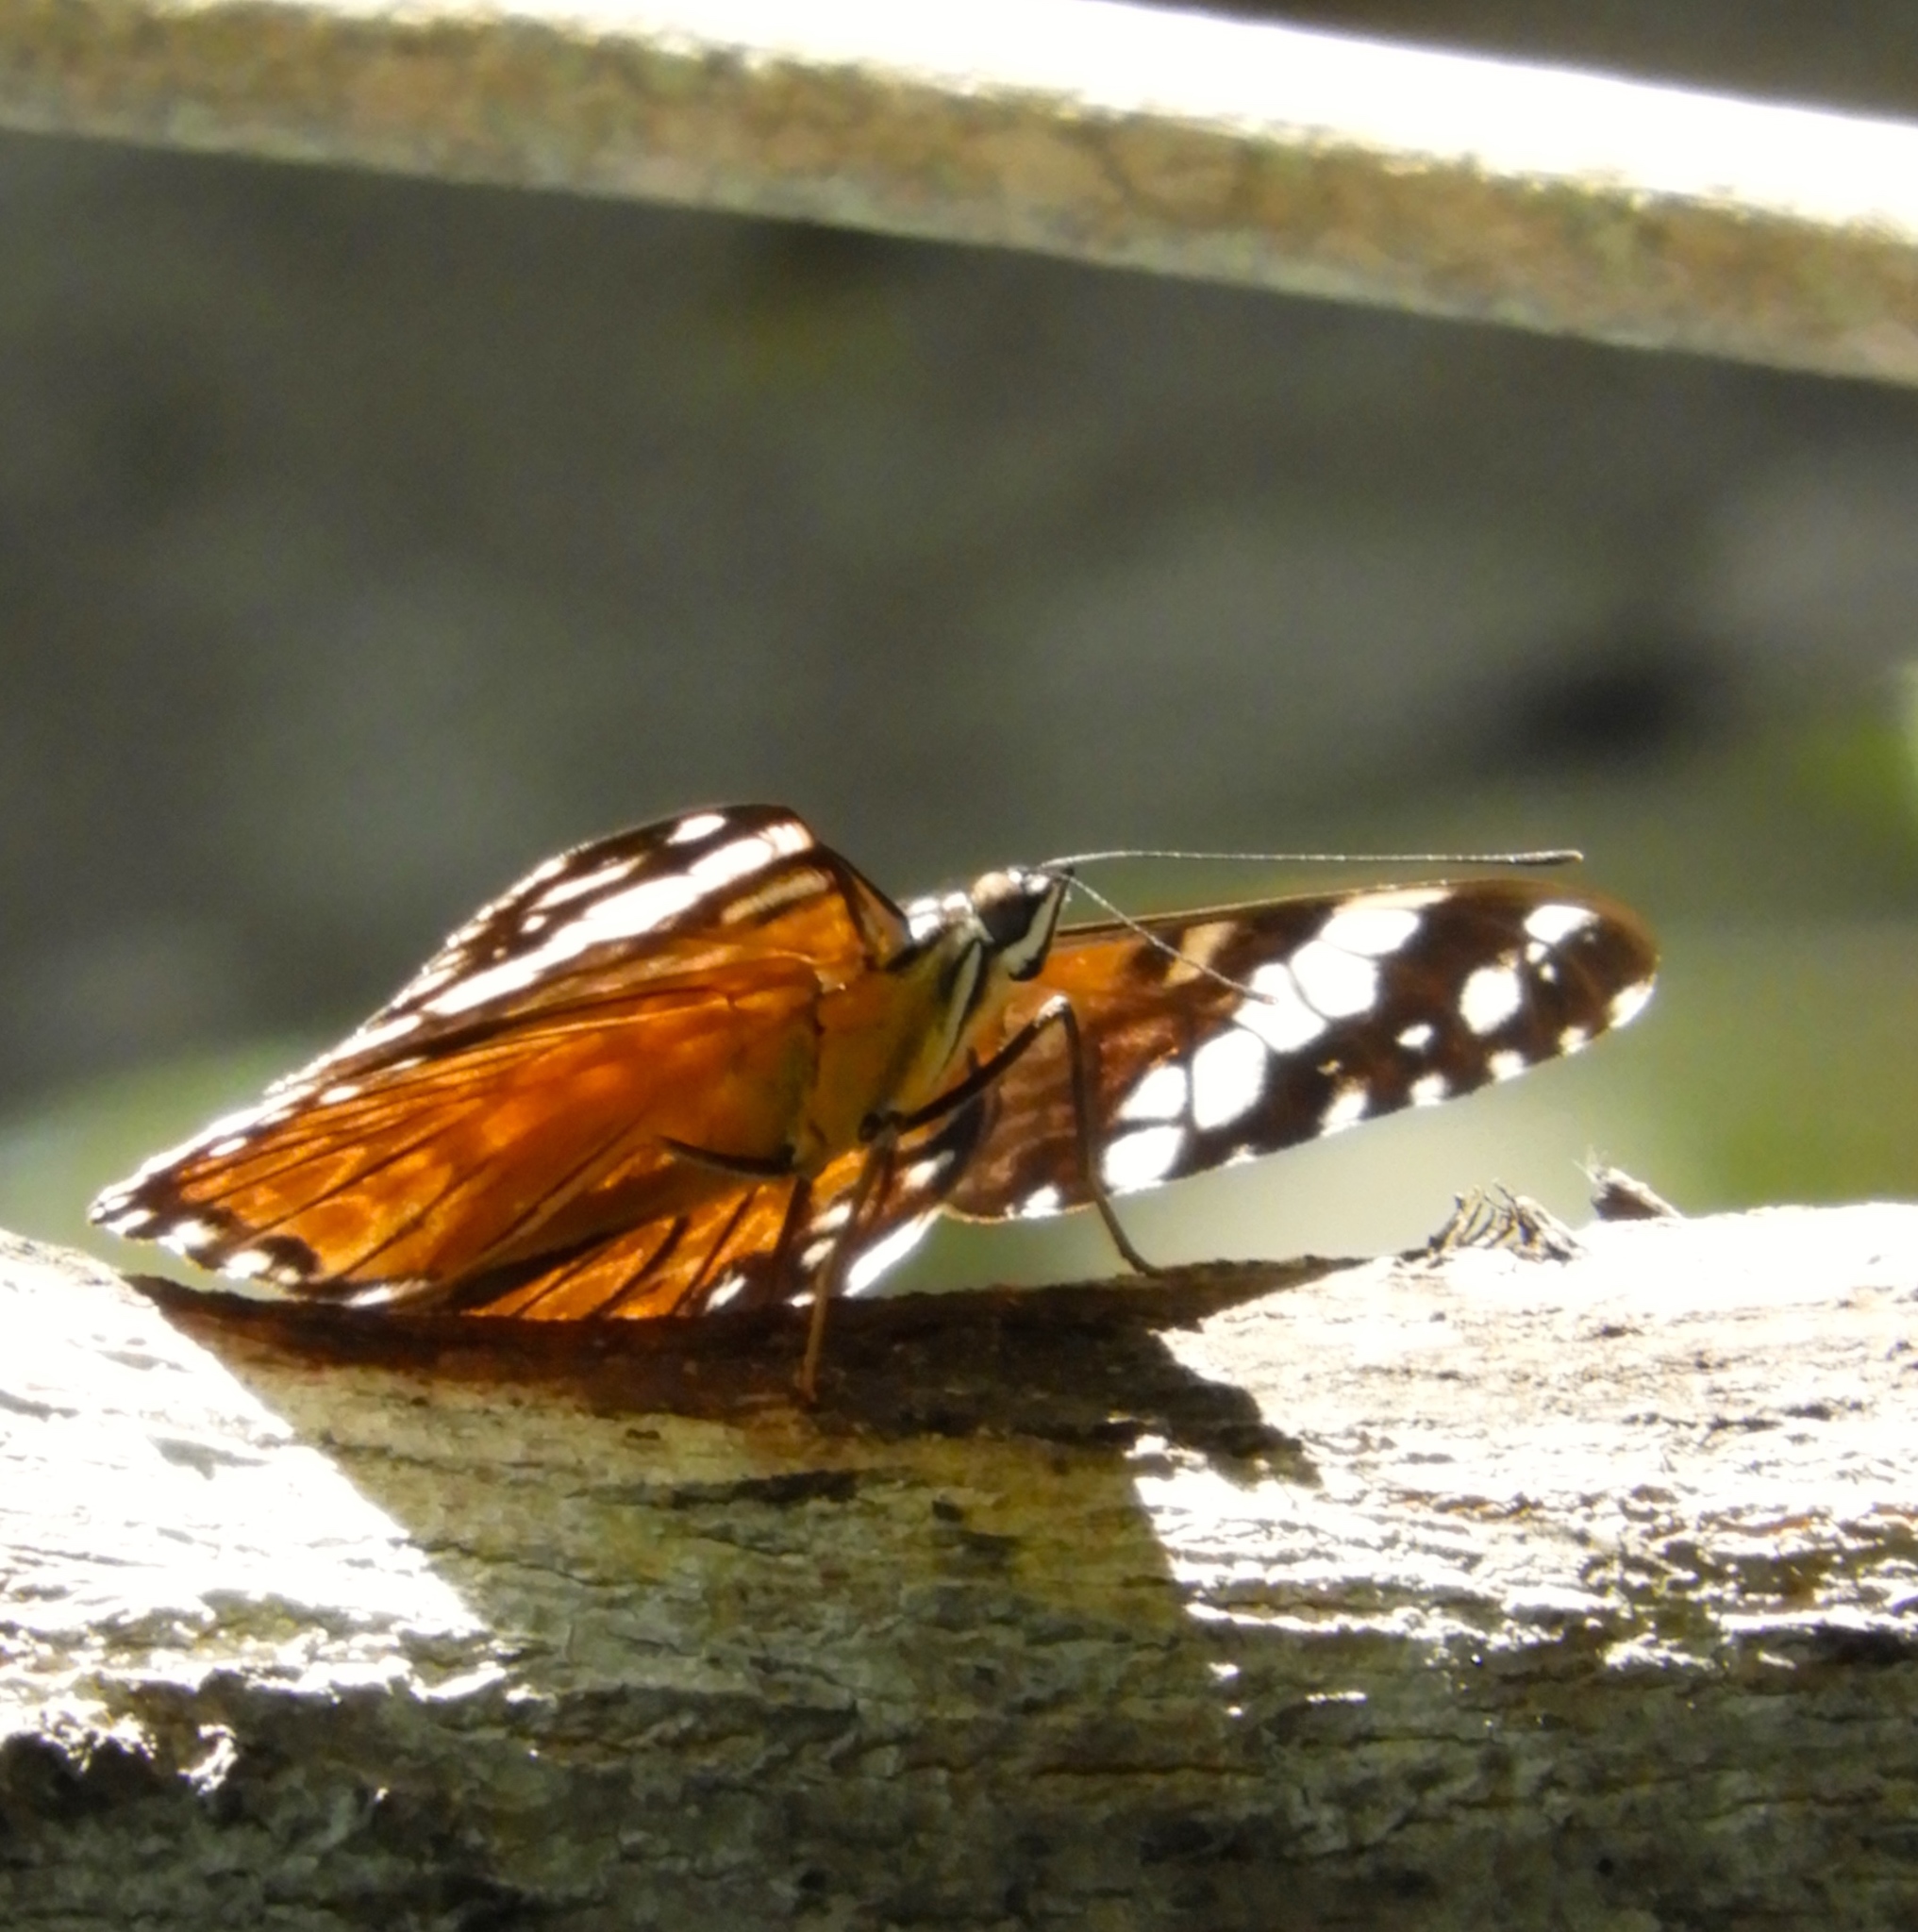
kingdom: Animalia
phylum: Arthropoda
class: Insecta
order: Lepidoptera
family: Nymphalidae
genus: Hamadryas
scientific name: Hamadryas amphinome
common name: Red cracker
